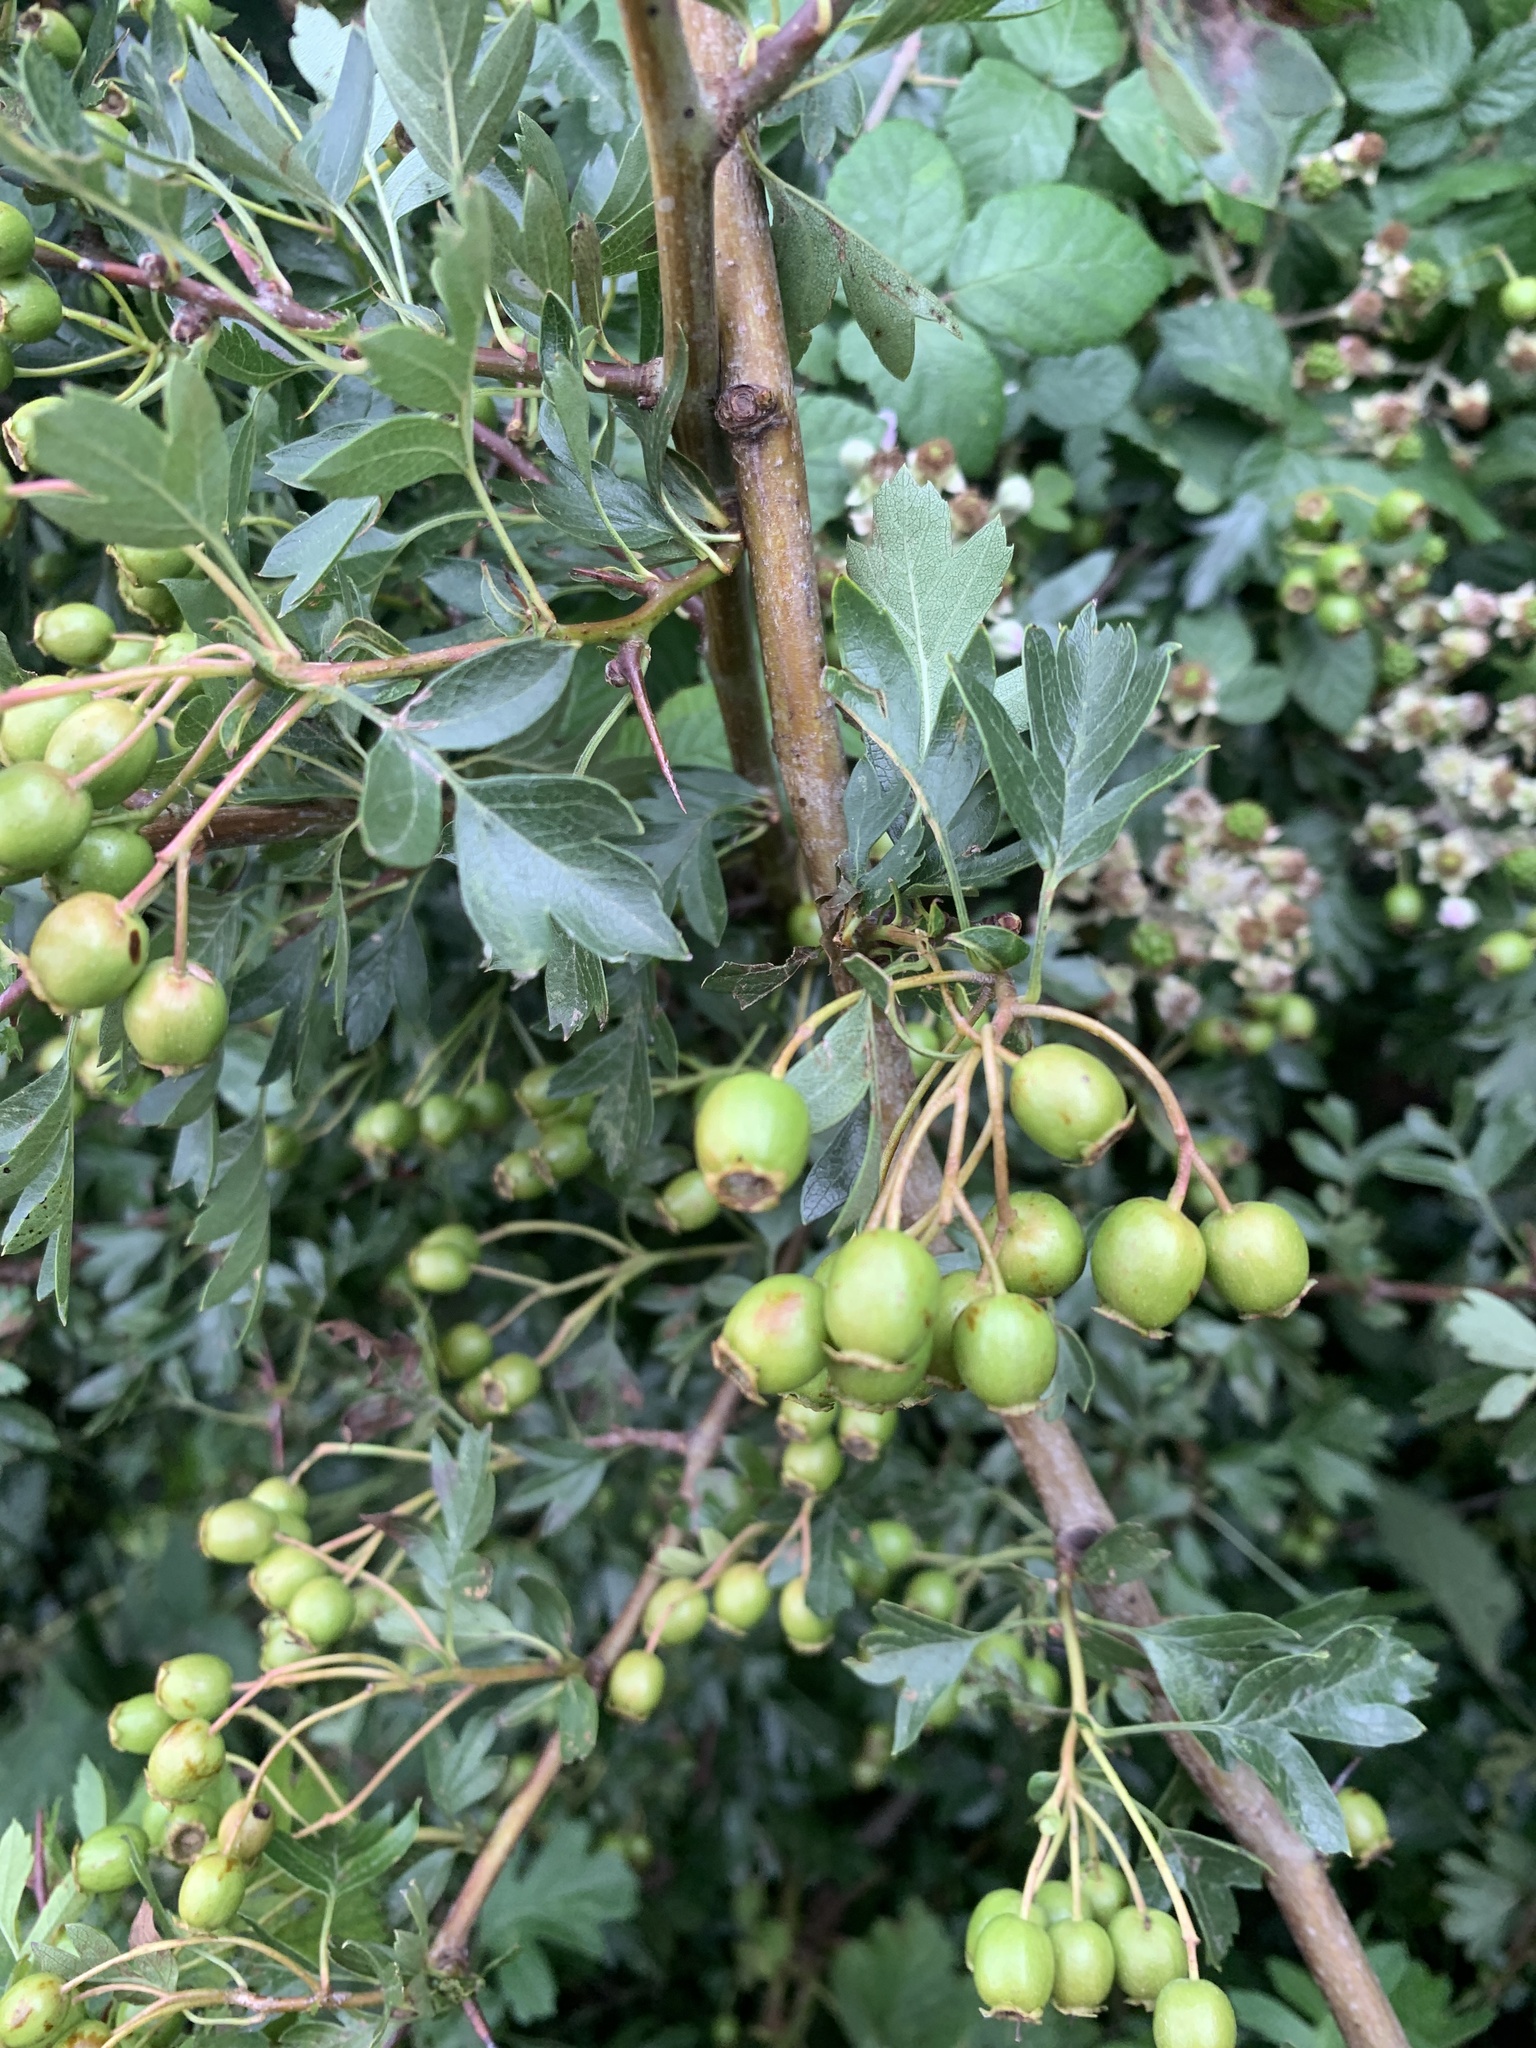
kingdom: Plantae
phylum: Tracheophyta
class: Magnoliopsida
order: Rosales
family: Rosaceae
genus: Crataegus
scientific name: Crataegus monogyna
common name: Hawthorn
